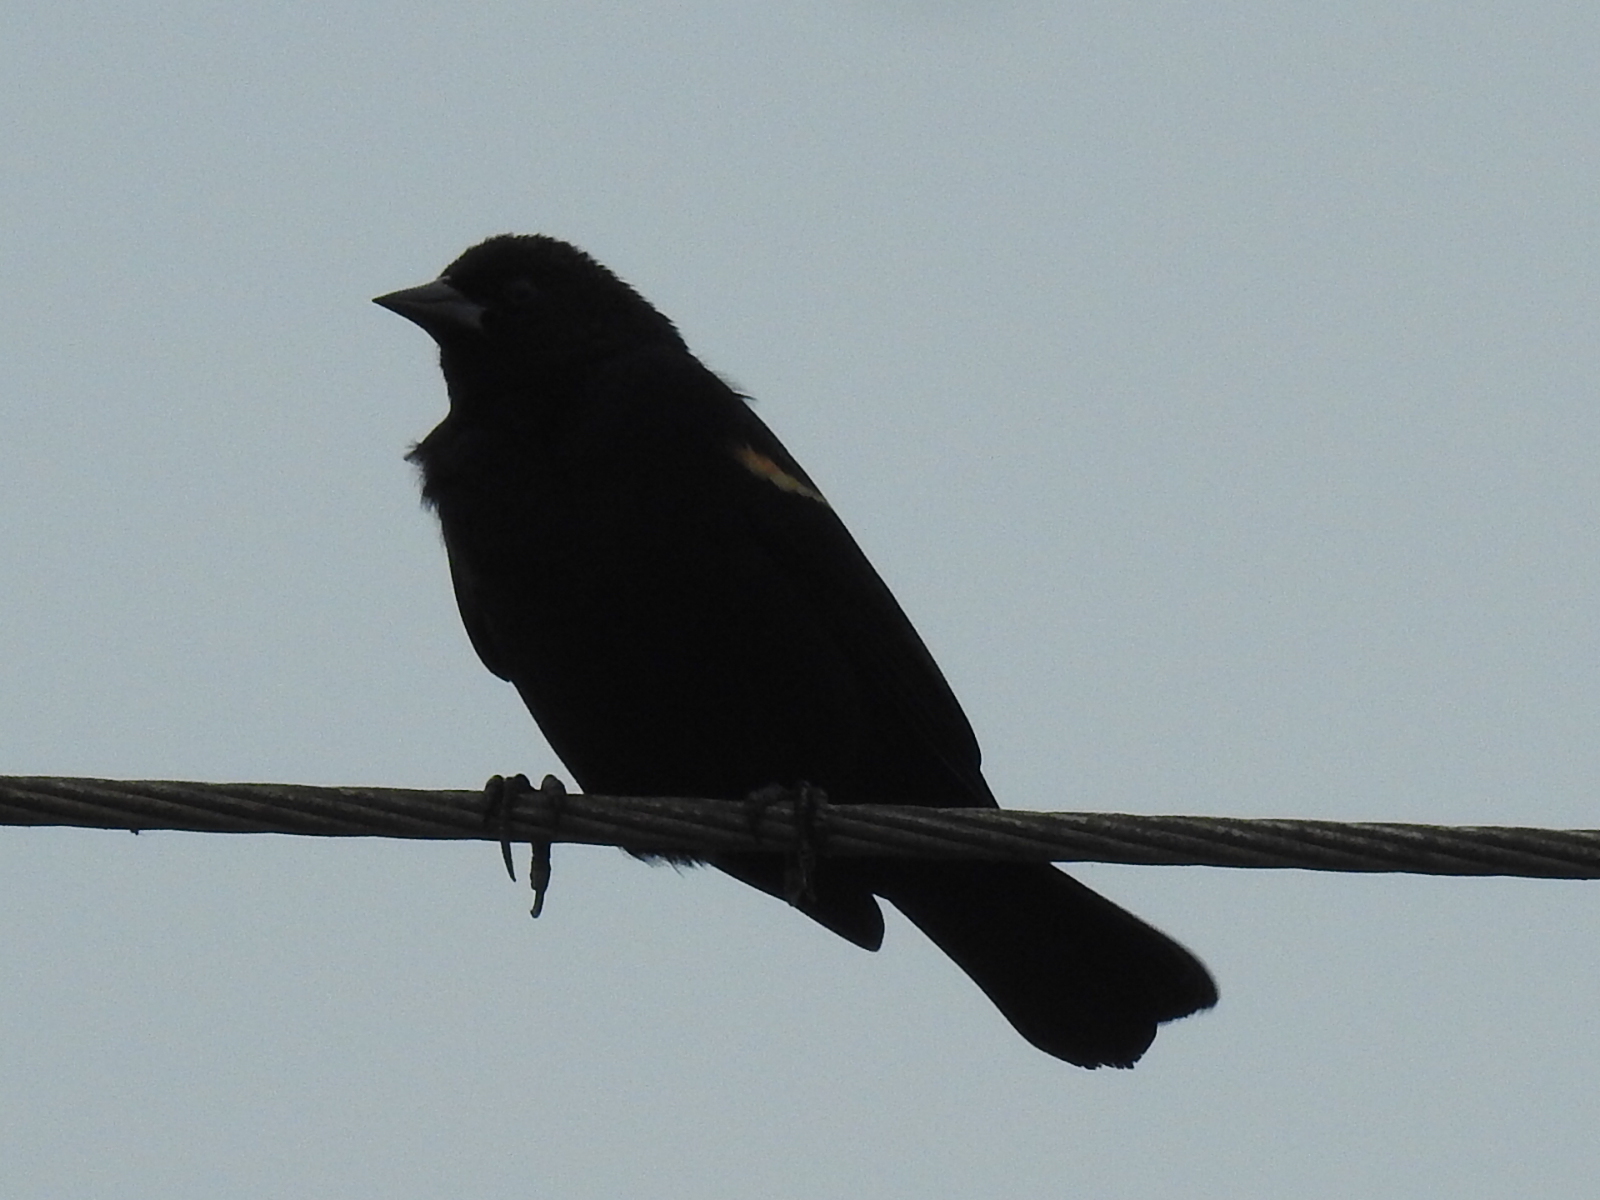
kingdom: Animalia
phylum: Chordata
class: Aves
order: Passeriformes
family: Icteridae
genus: Agelaius
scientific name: Agelaius phoeniceus
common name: Red-winged blackbird
